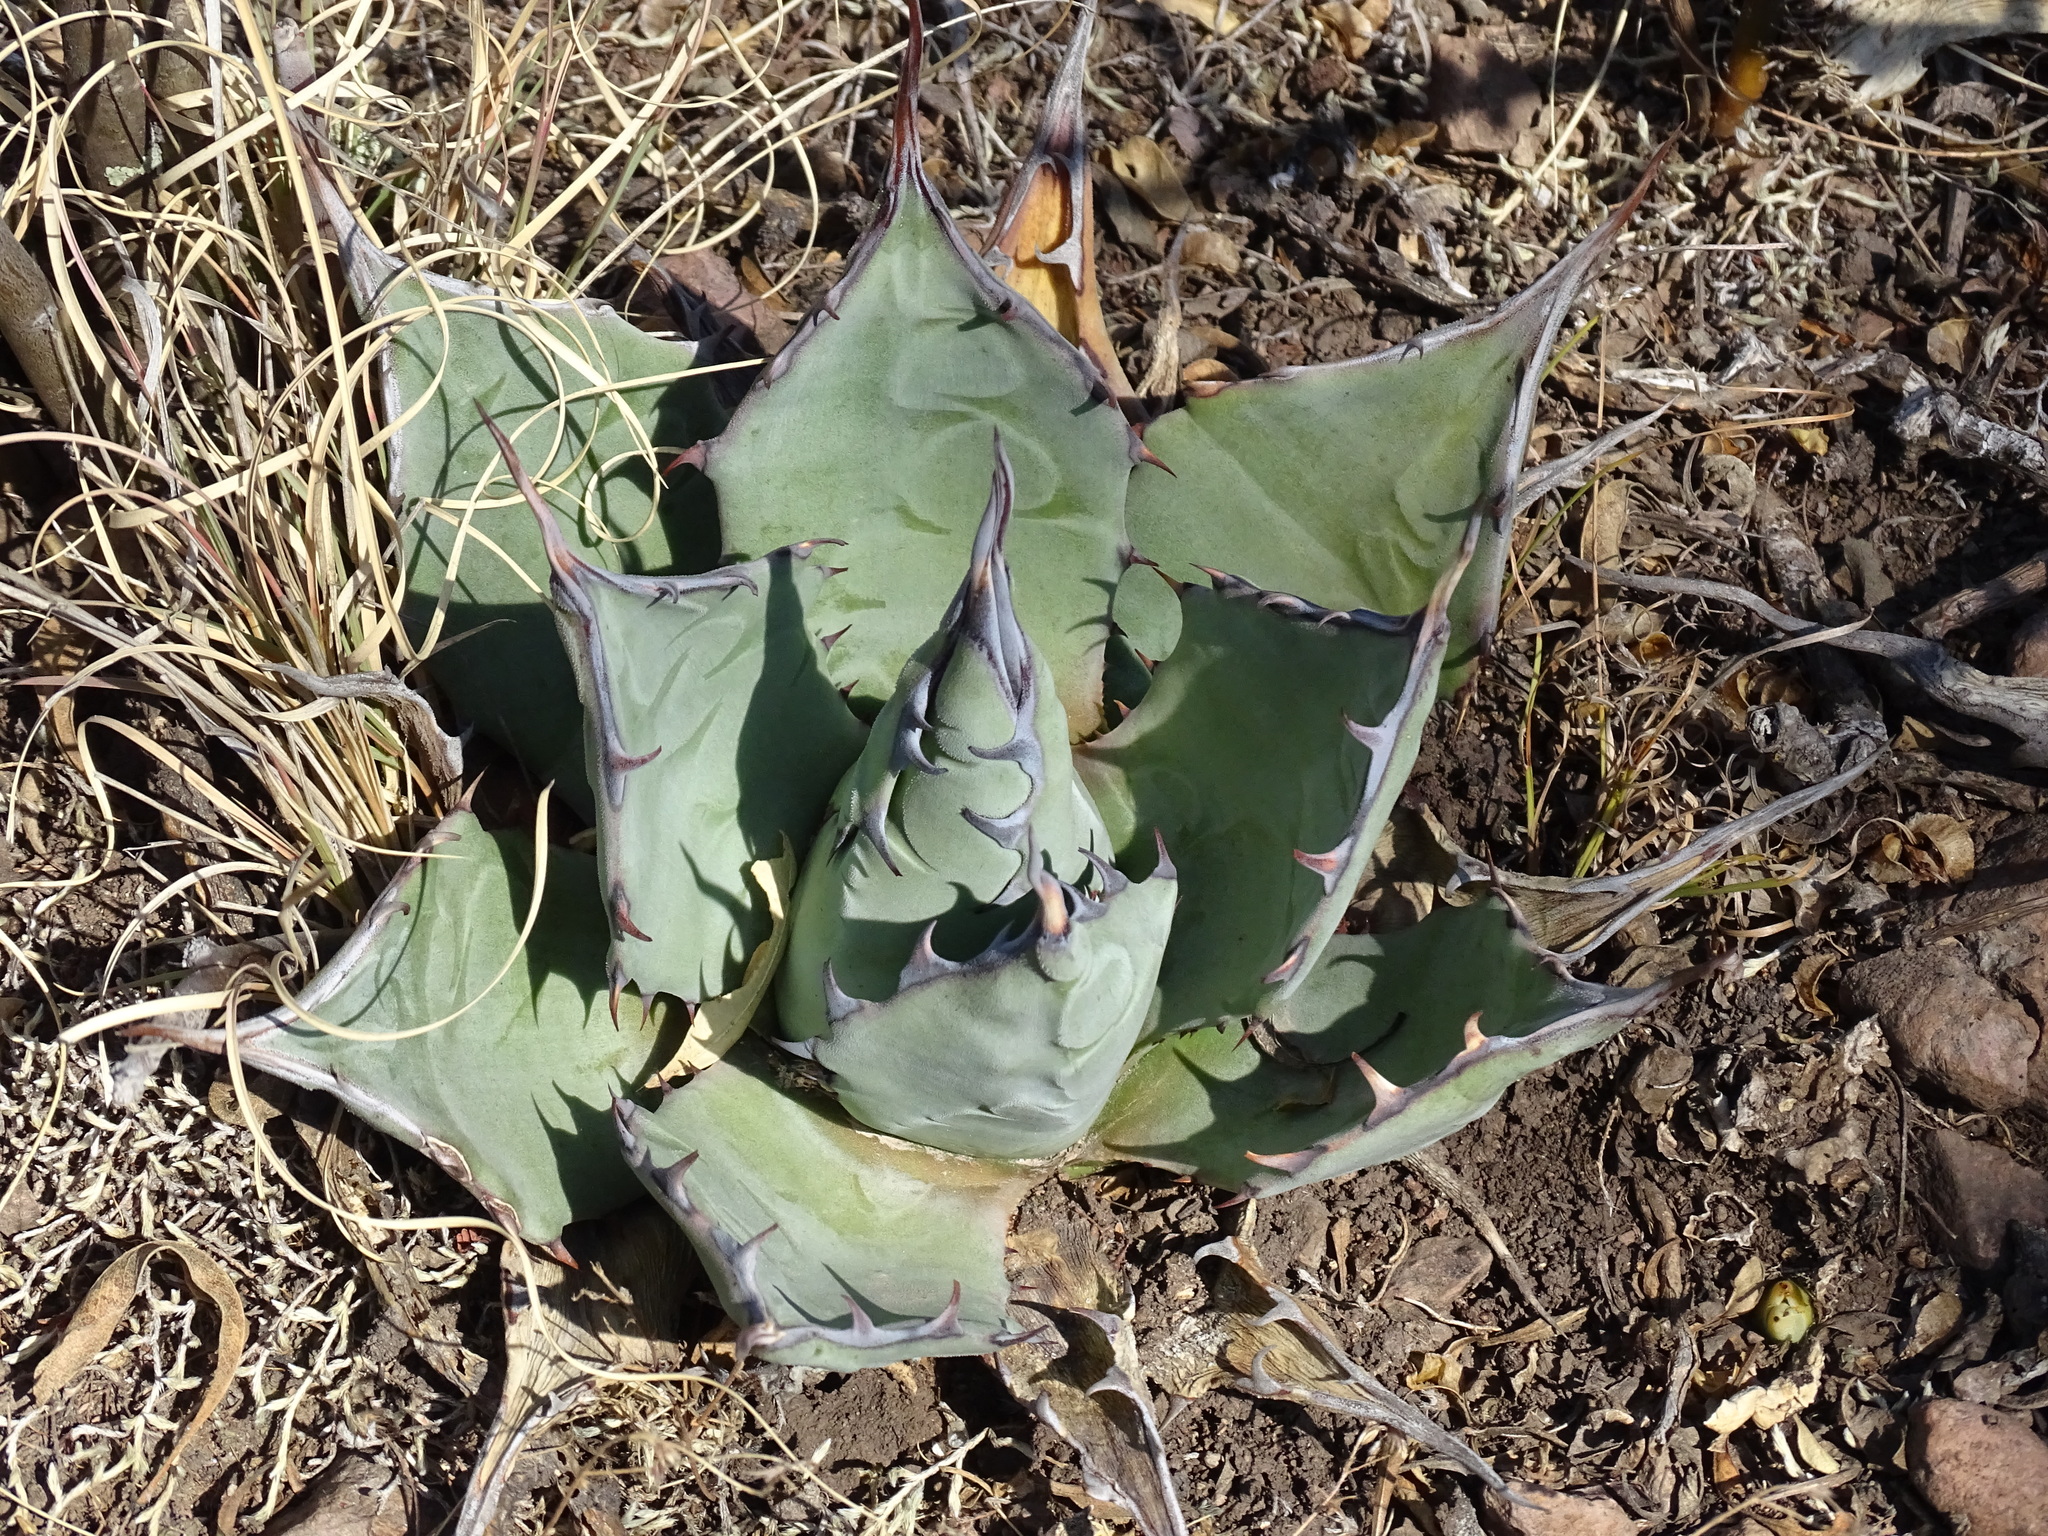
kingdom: Plantae
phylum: Tracheophyta
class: Liliopsida
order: Asparagales
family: Asparagaceae
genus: Agave
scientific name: Agave applanata
